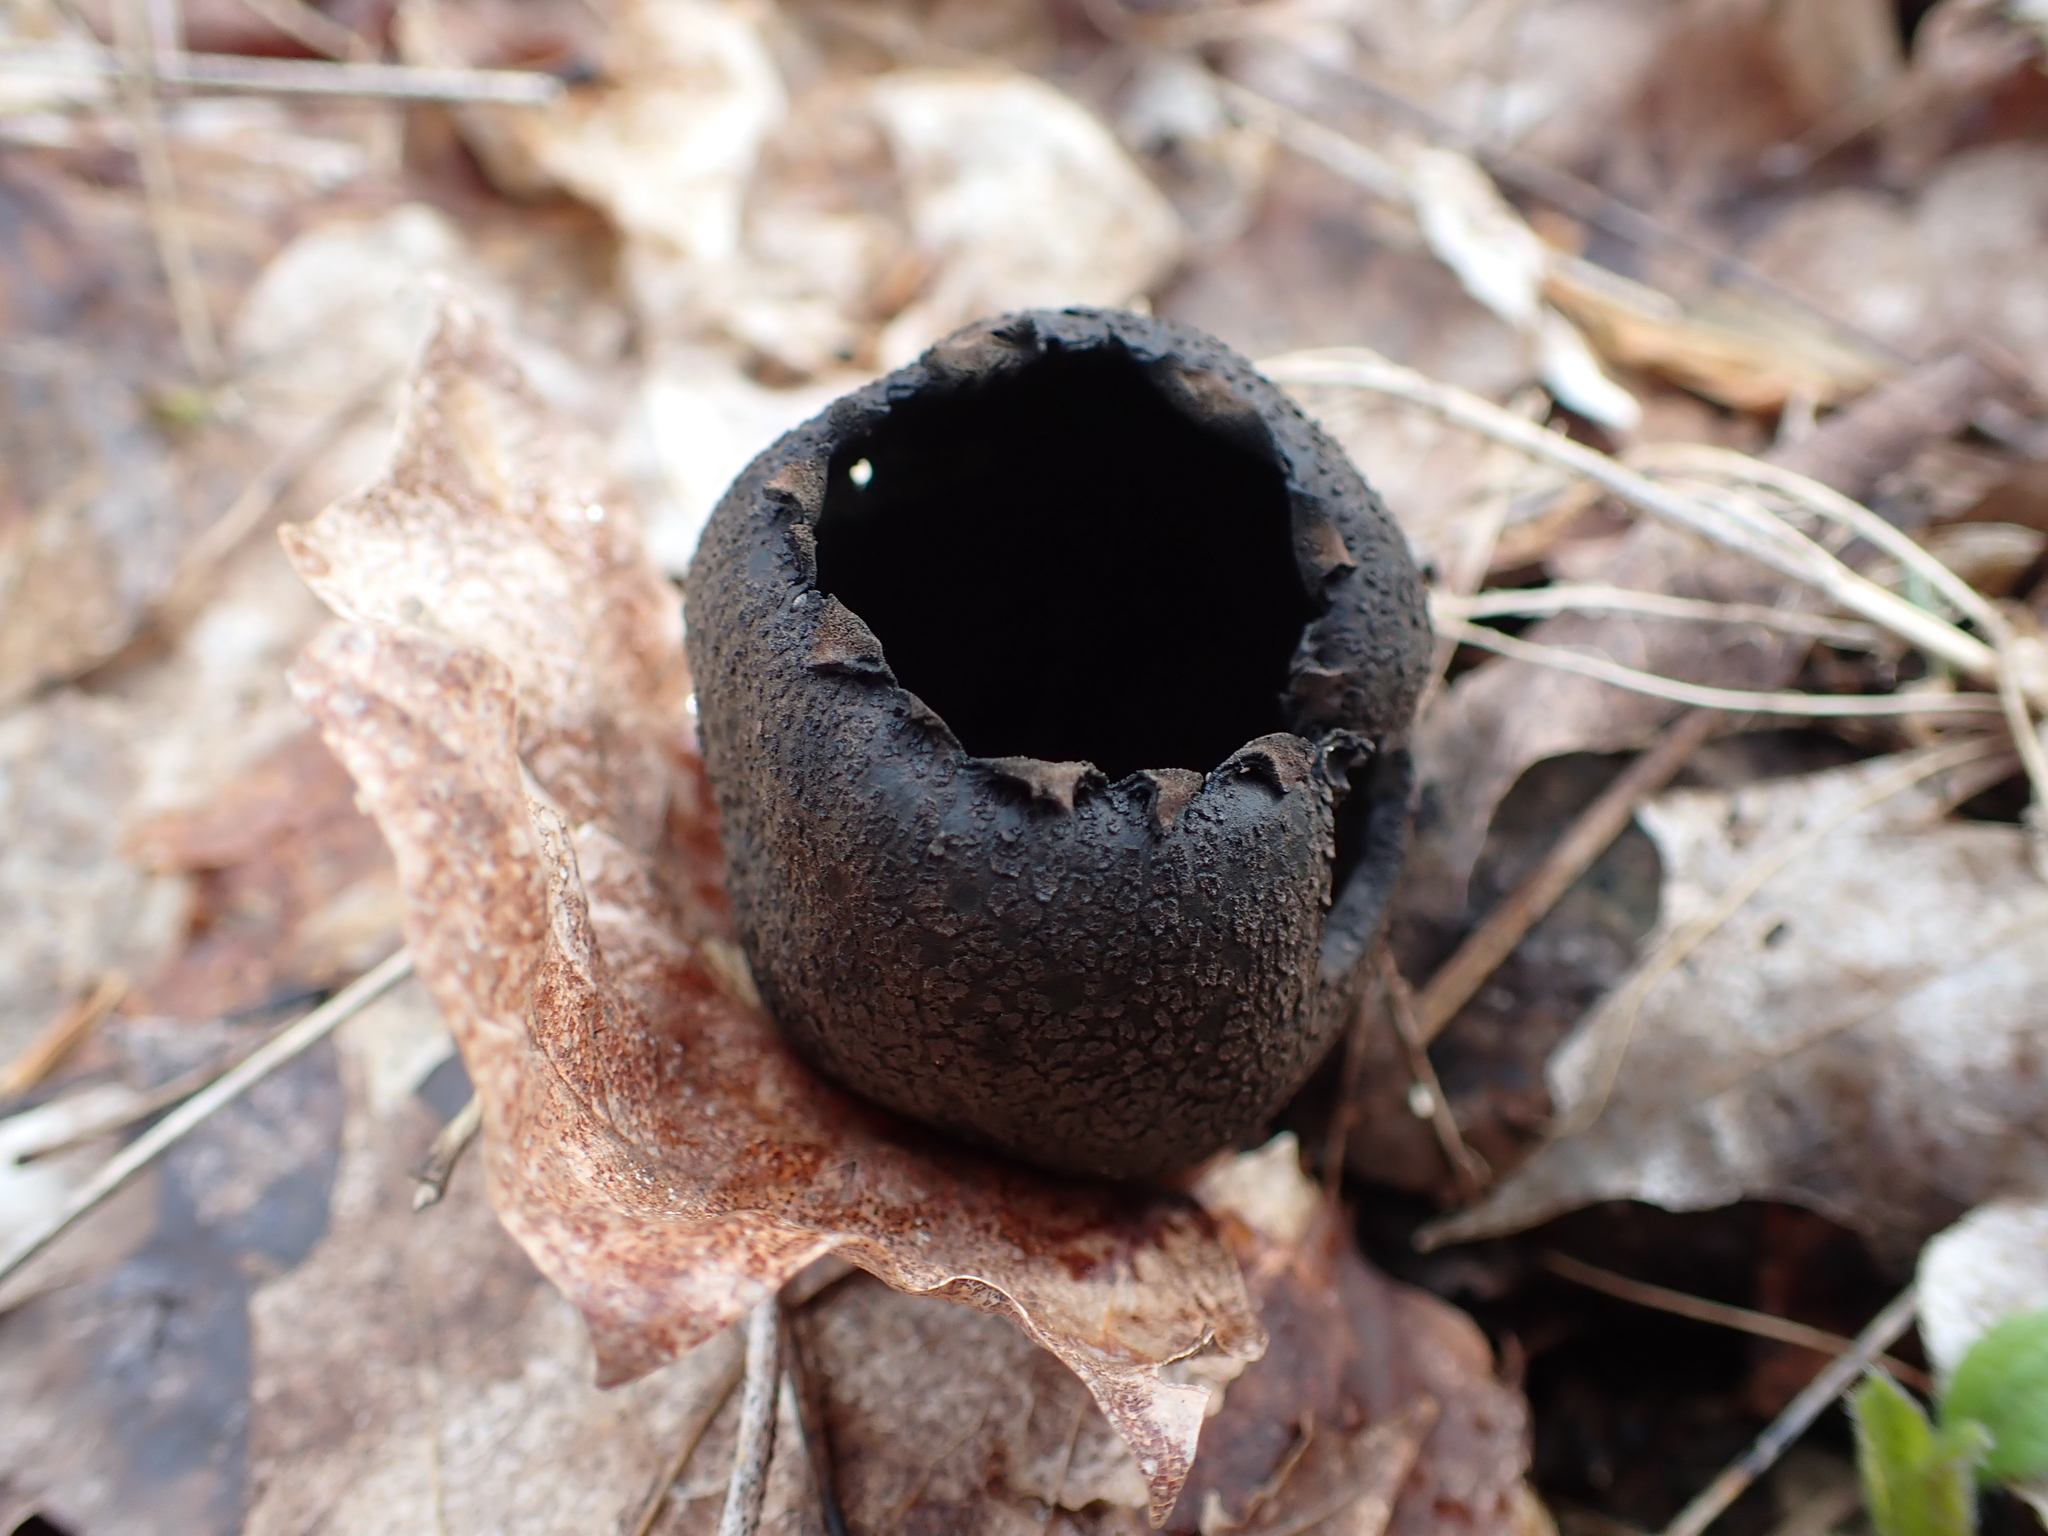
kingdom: Fungi
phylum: Ascomycota
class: Pezizomycetes
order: Pezizales
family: Sarcosomataceae
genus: Urnula
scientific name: Urnula craterium
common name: Devil's urn
